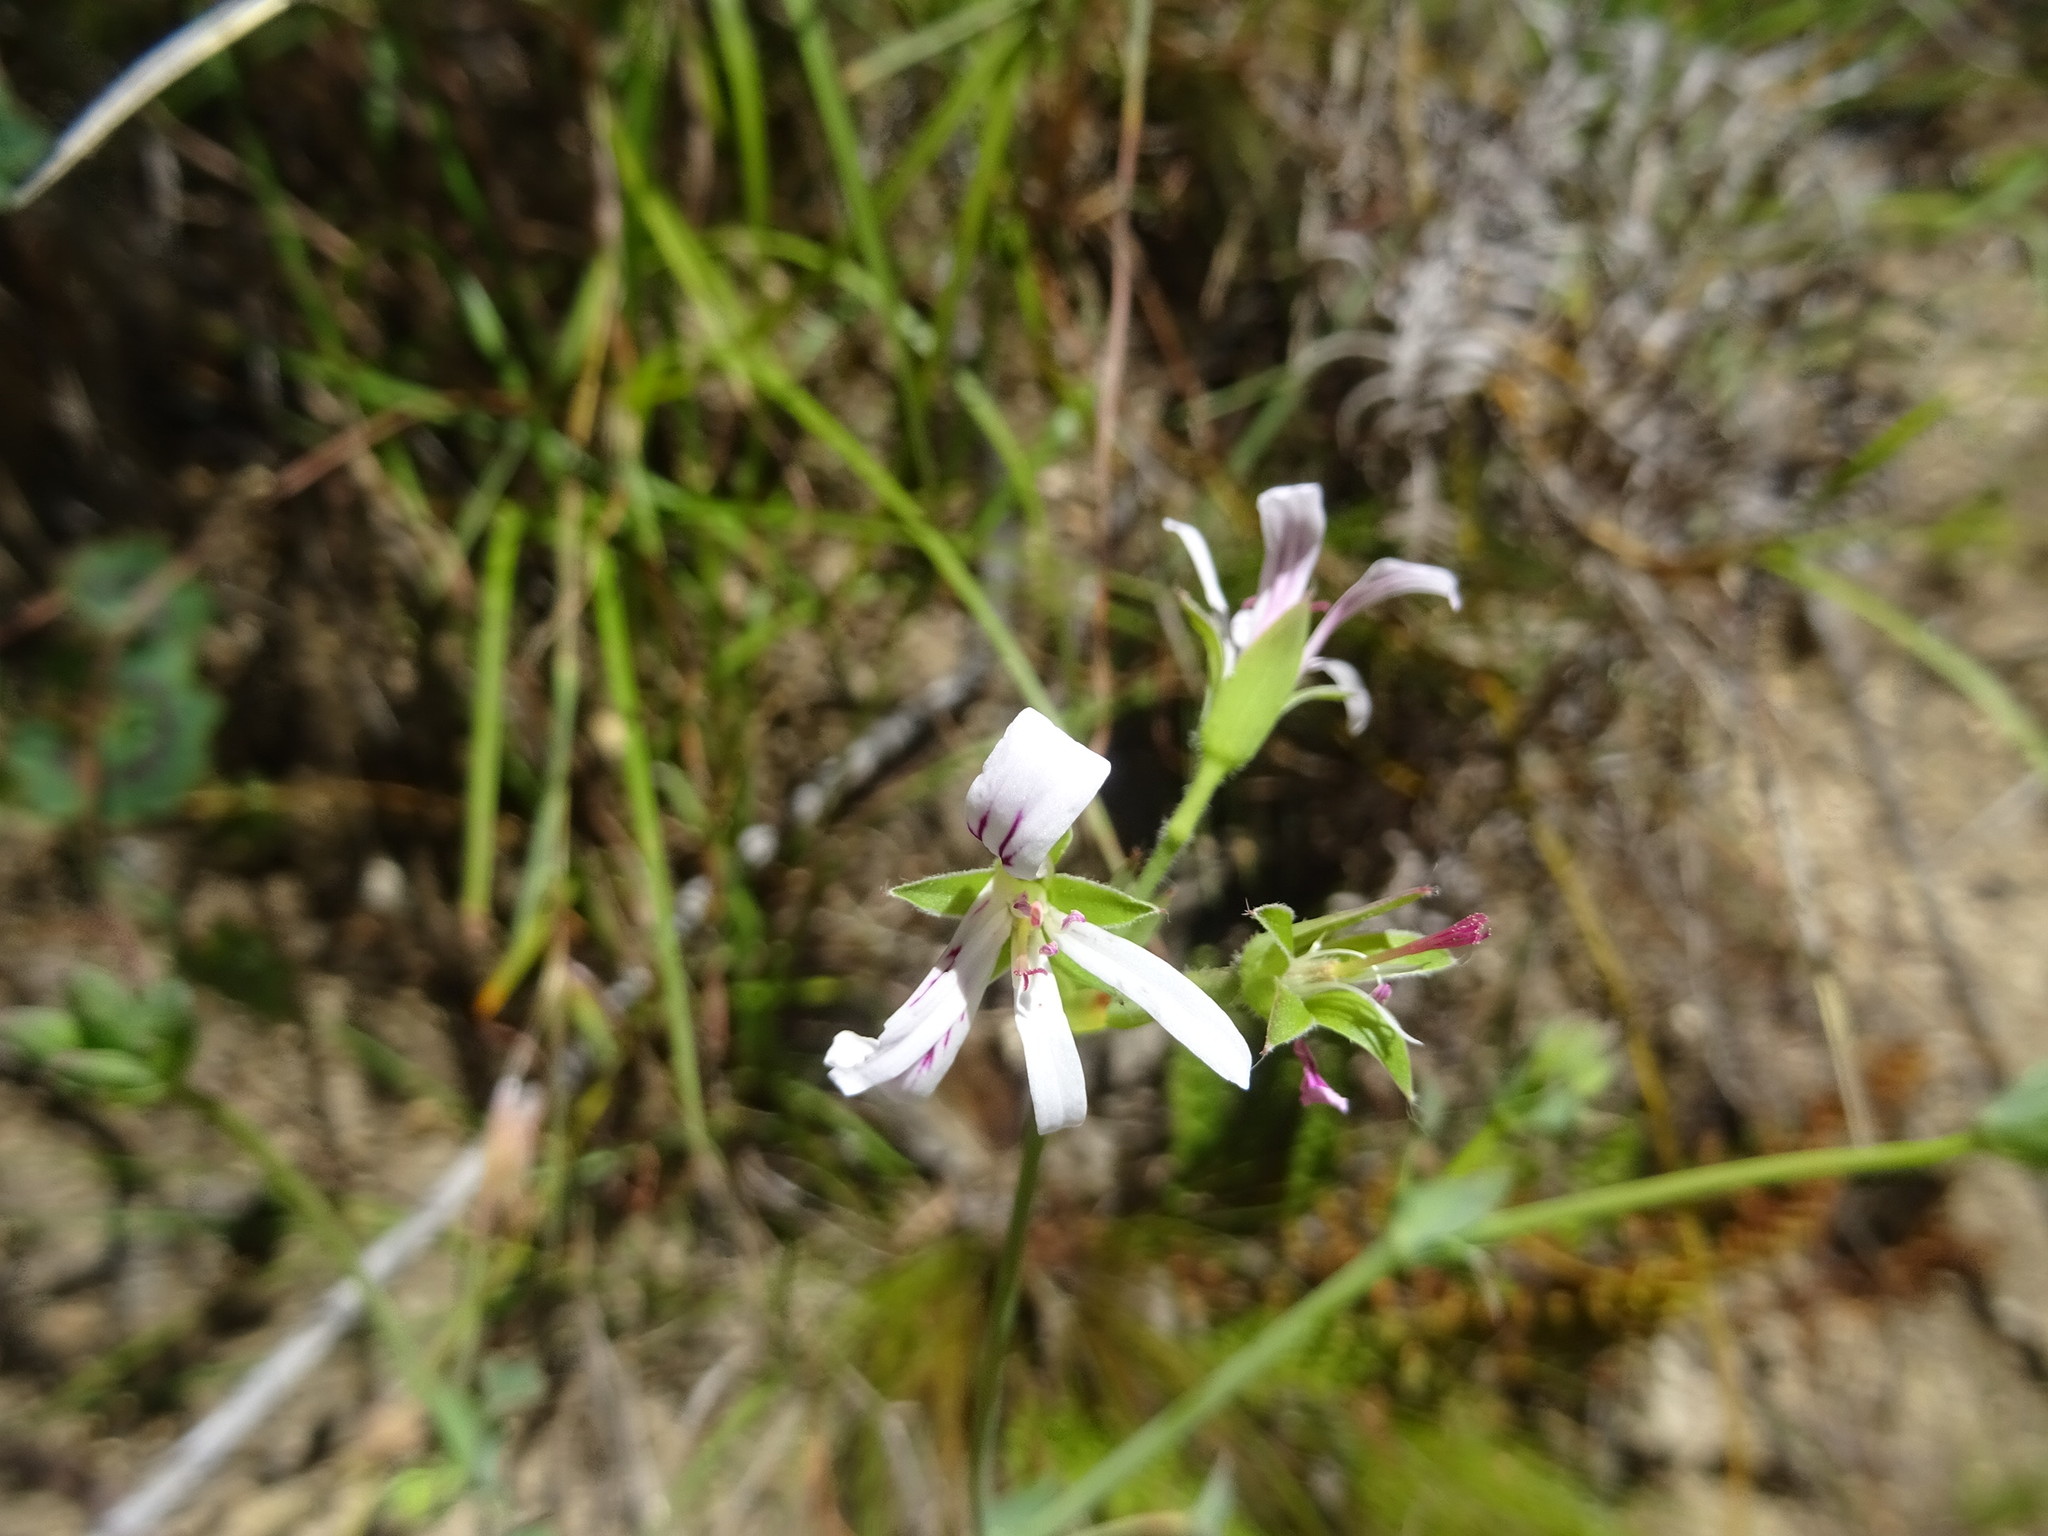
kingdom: Plantae
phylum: Tracheophyta
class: Magnoliopsida
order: Geraniales
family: Geraniaceae
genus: Pelargonium
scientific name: Pelargonium tabulare
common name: Table mountain pelargonium
